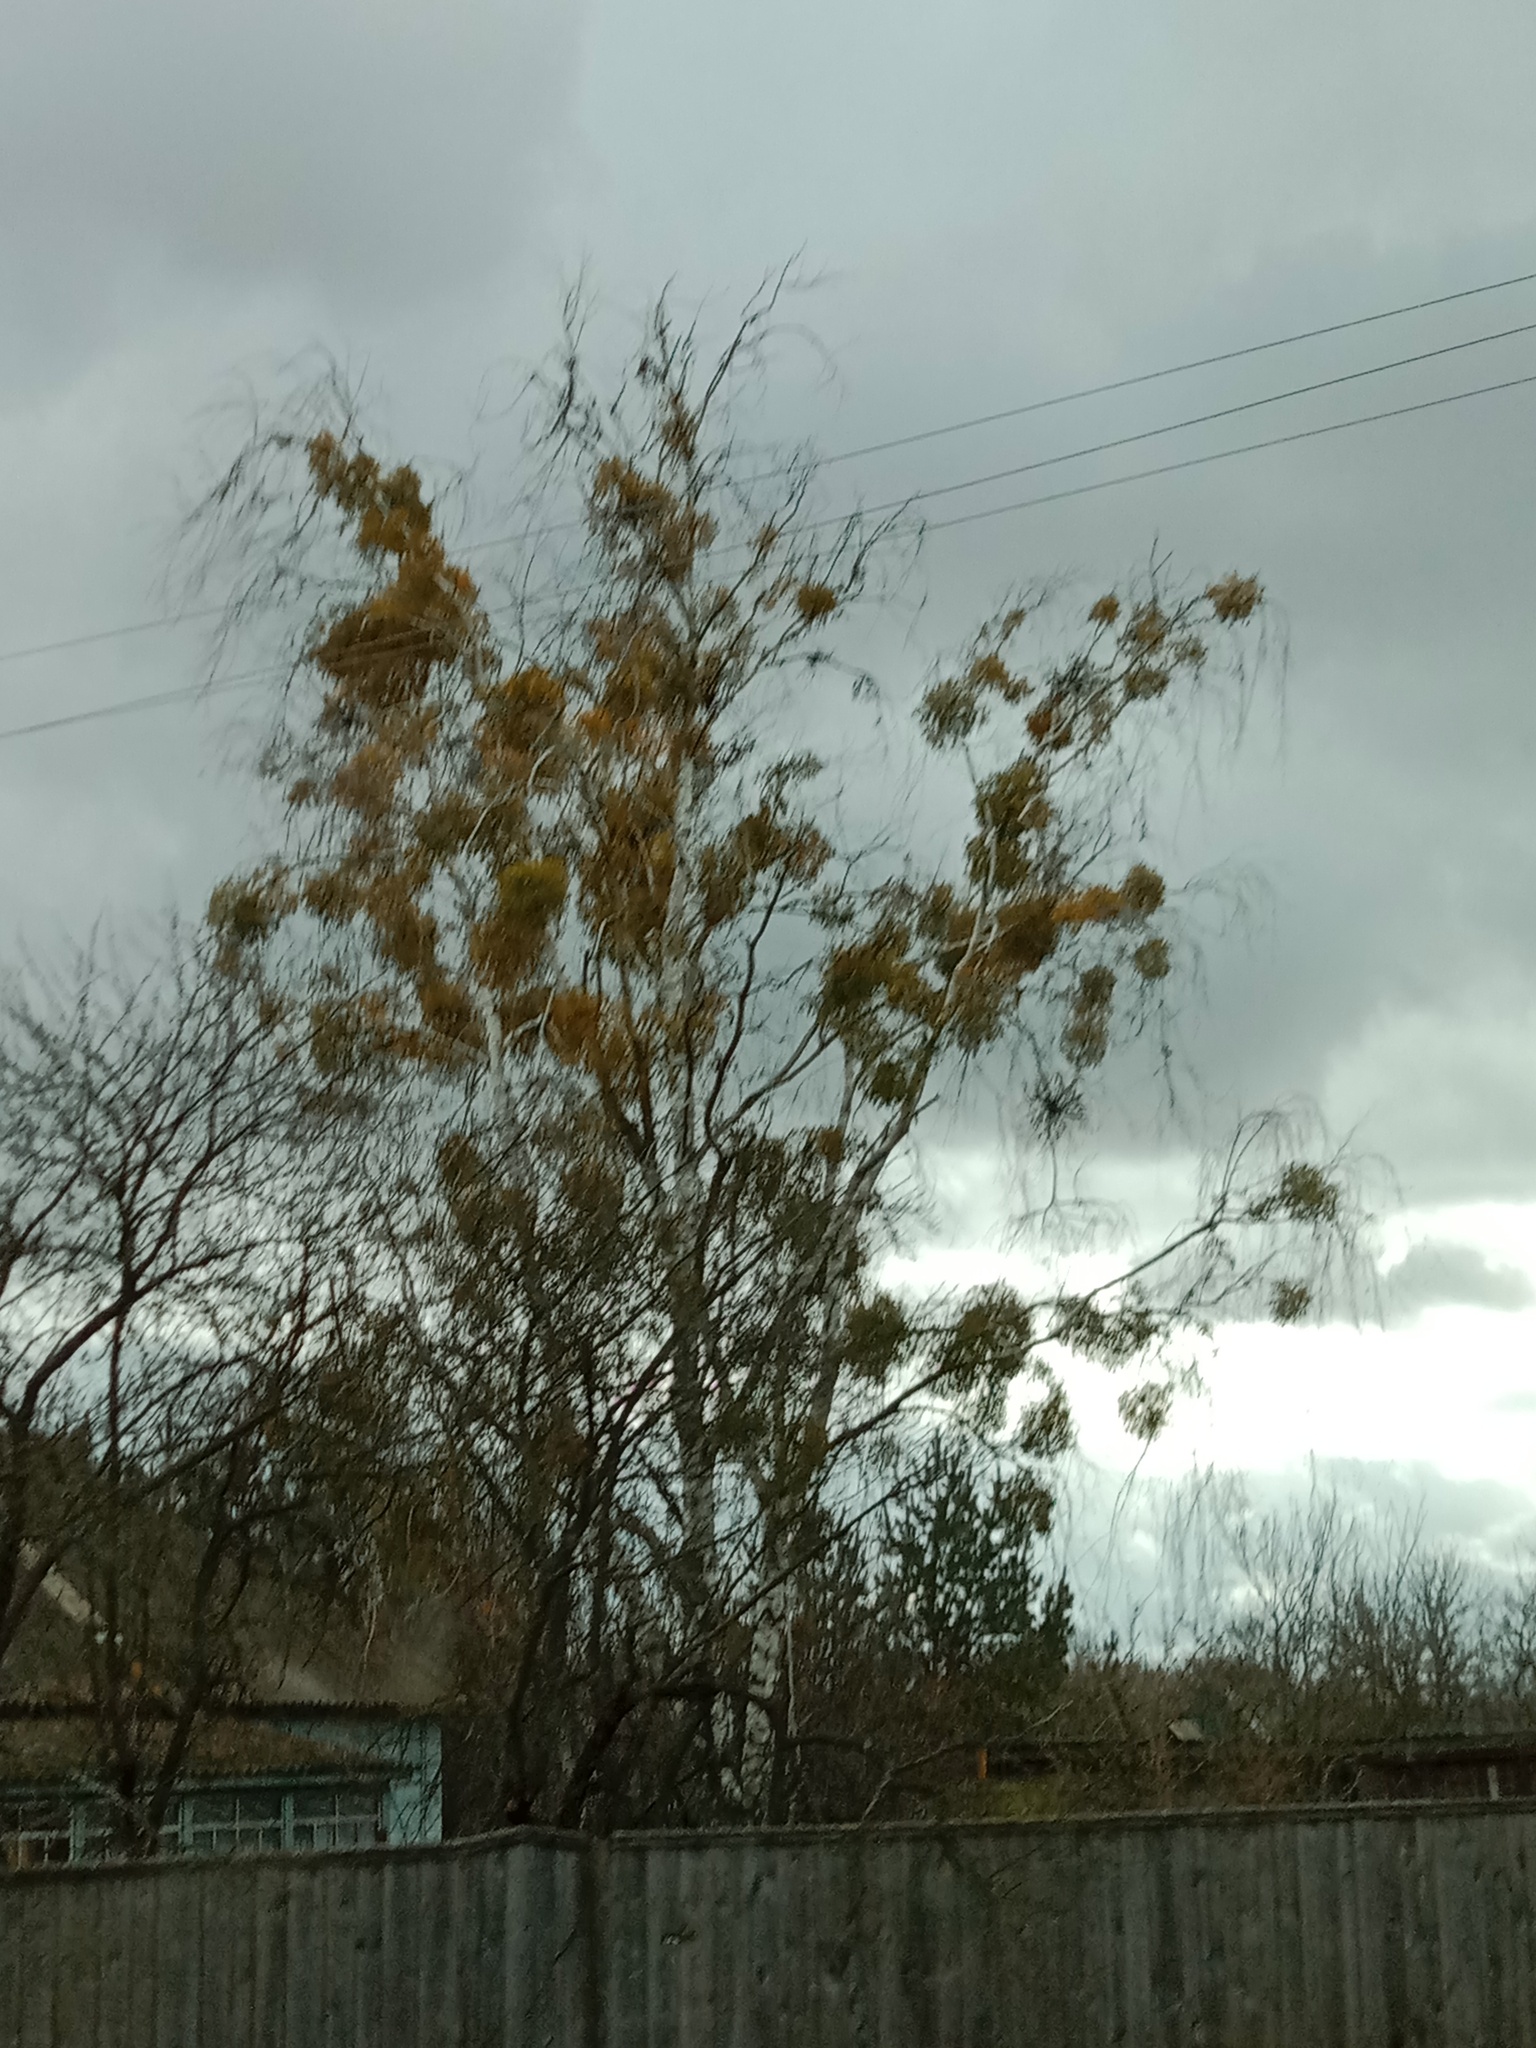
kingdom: Plantae
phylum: Tracheophyta
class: Magnoliopsida
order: Santalales
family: Viscaceae
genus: Viscum
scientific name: Viscum album
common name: Mistletoe
